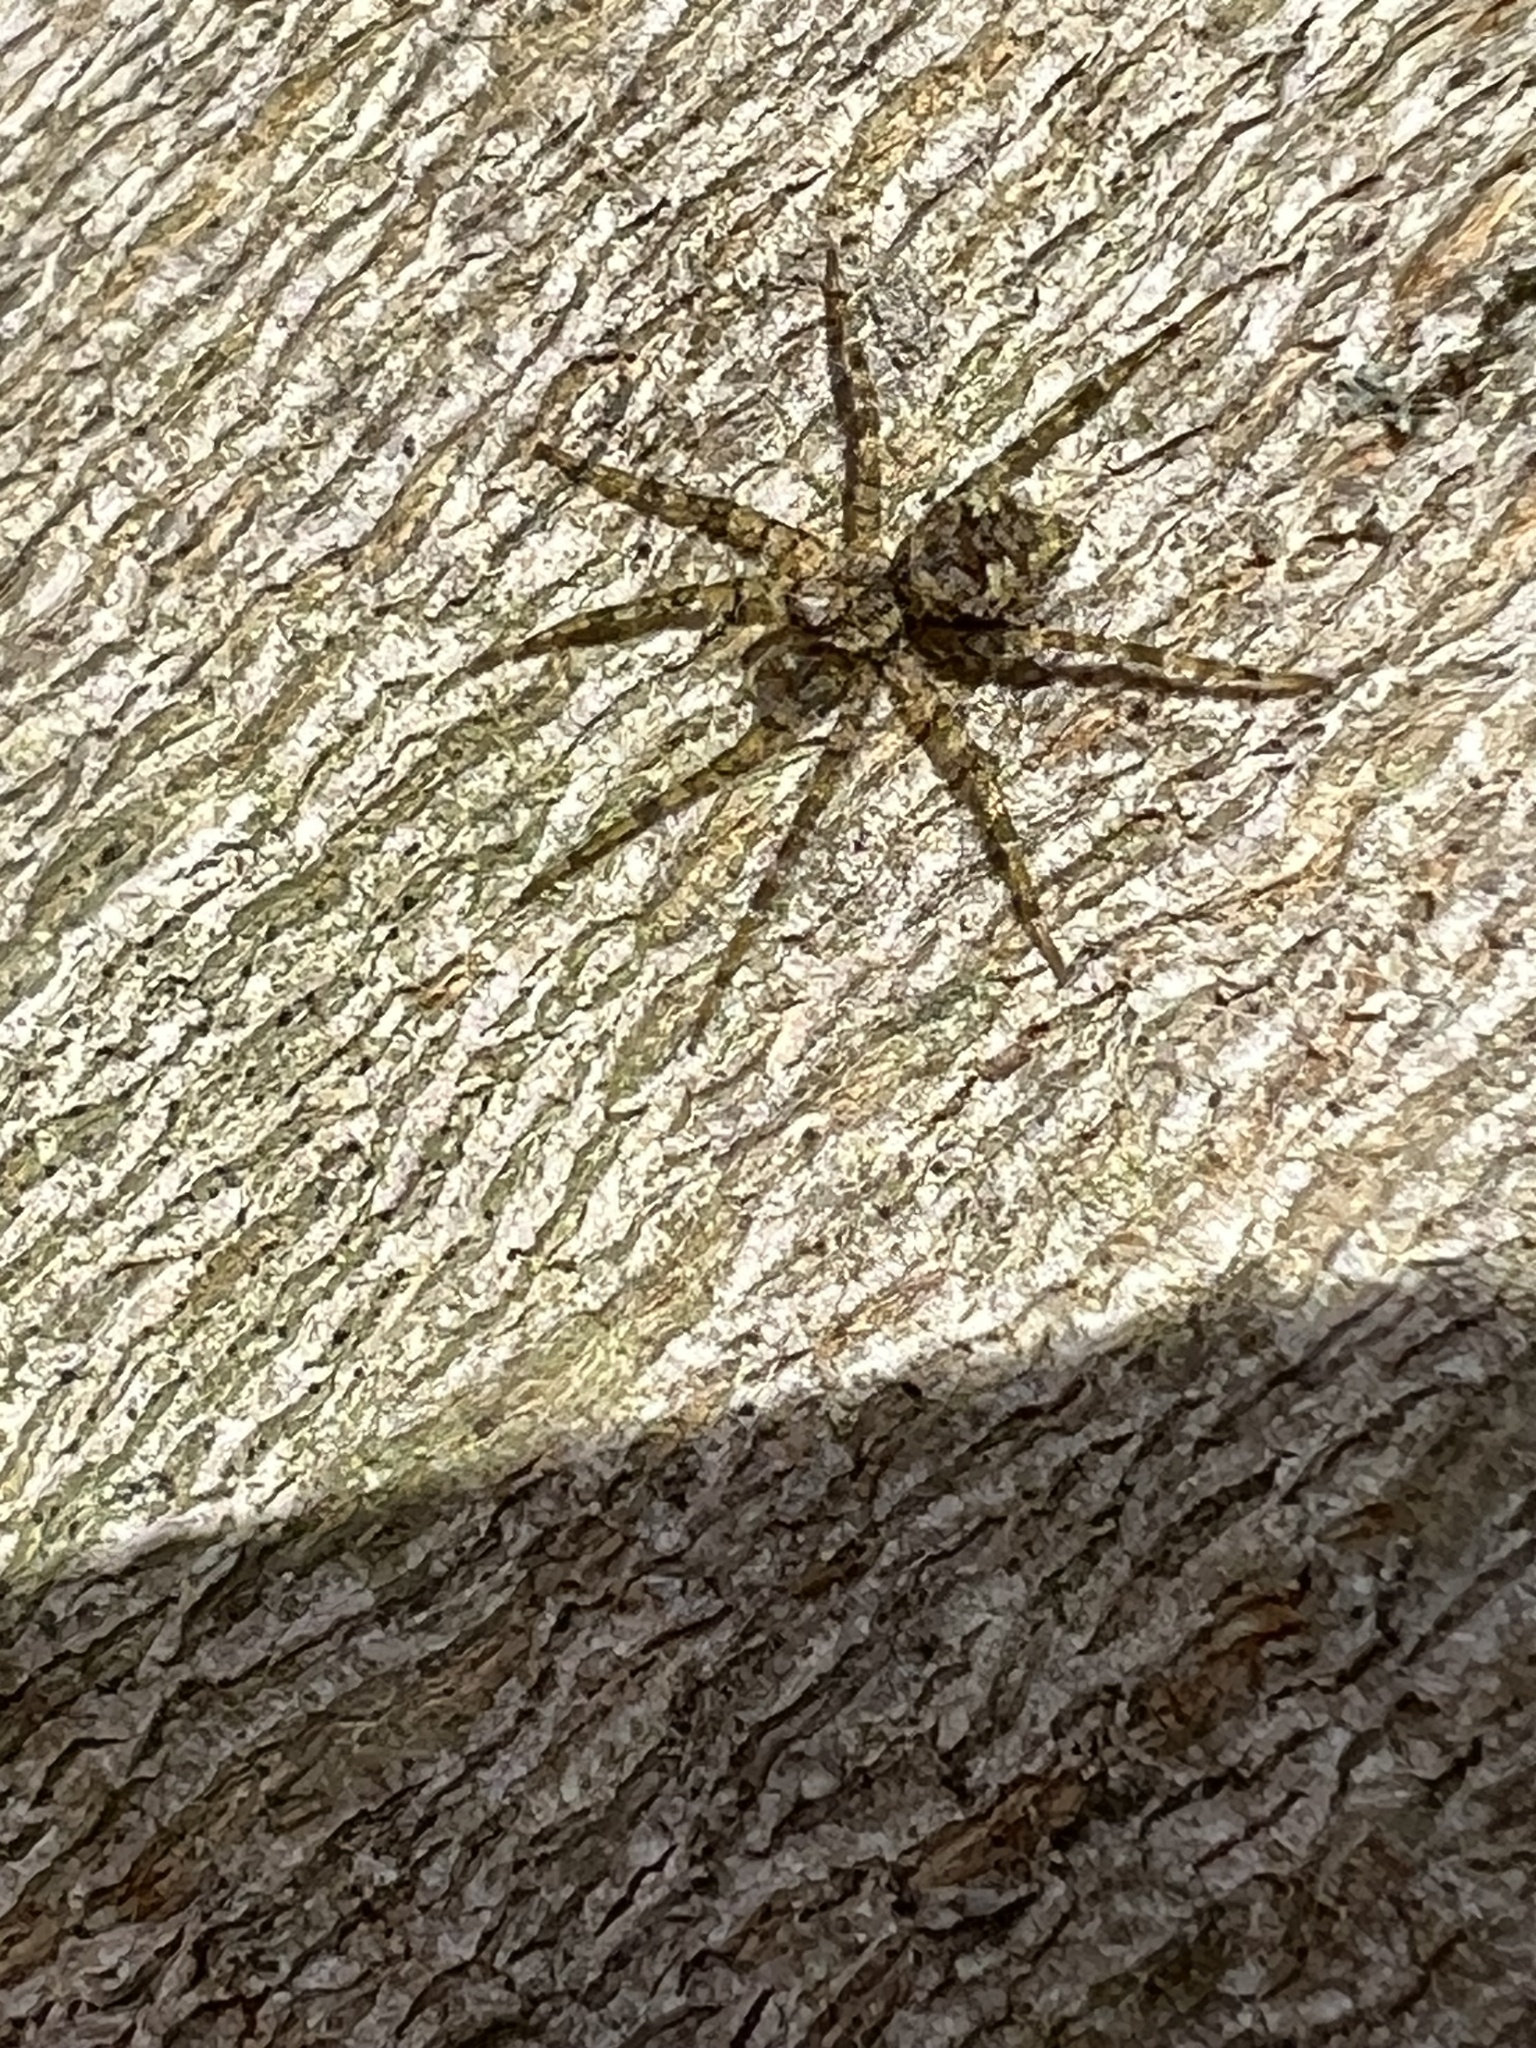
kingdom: Animalia
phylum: Arthropoda
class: Arachnida
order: Araneae
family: Pisauridae
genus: Dolomedes
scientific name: Dolomedes albineus
